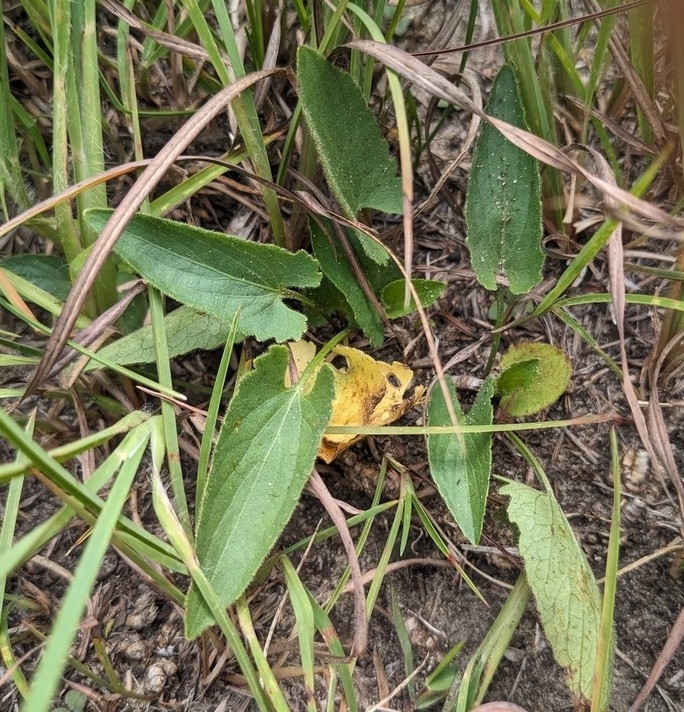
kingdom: Plantae
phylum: Tracheophyta
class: Magnoliopsida
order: Malpighiales
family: Violaceae
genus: Viola
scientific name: Viola sagittata
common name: Arrowhead violet
